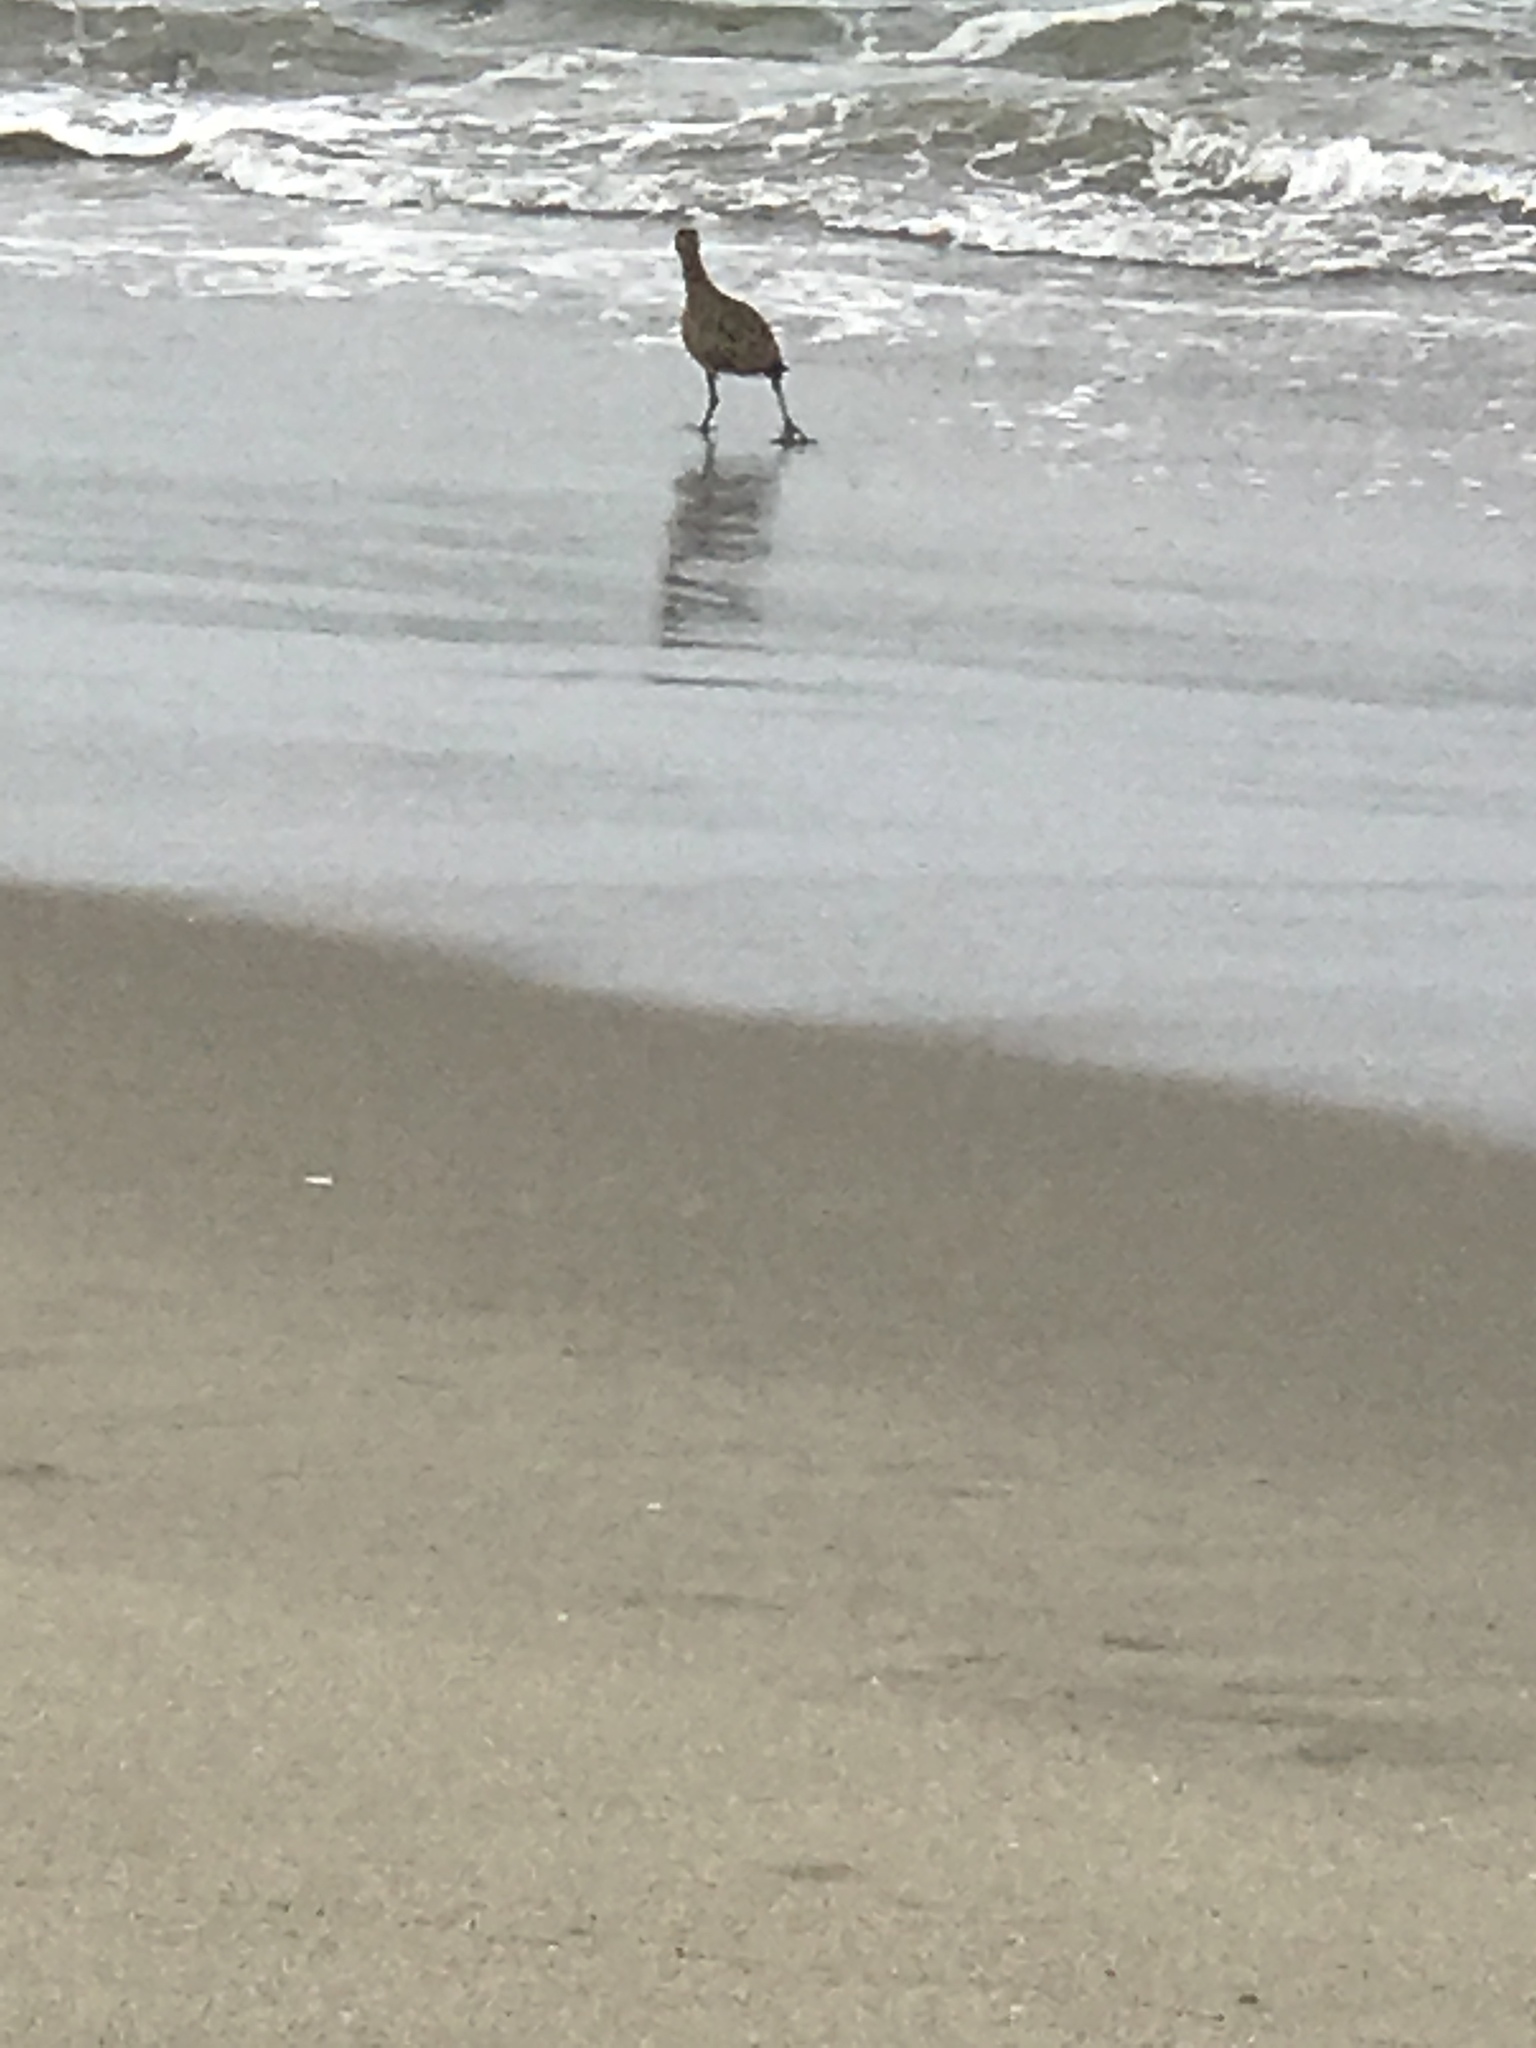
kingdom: Animalia
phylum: Chordata
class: Aves
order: Charadriiformes
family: Scolopacidae
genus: Numenius
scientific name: Numenius phaeopus
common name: Whimbrel
